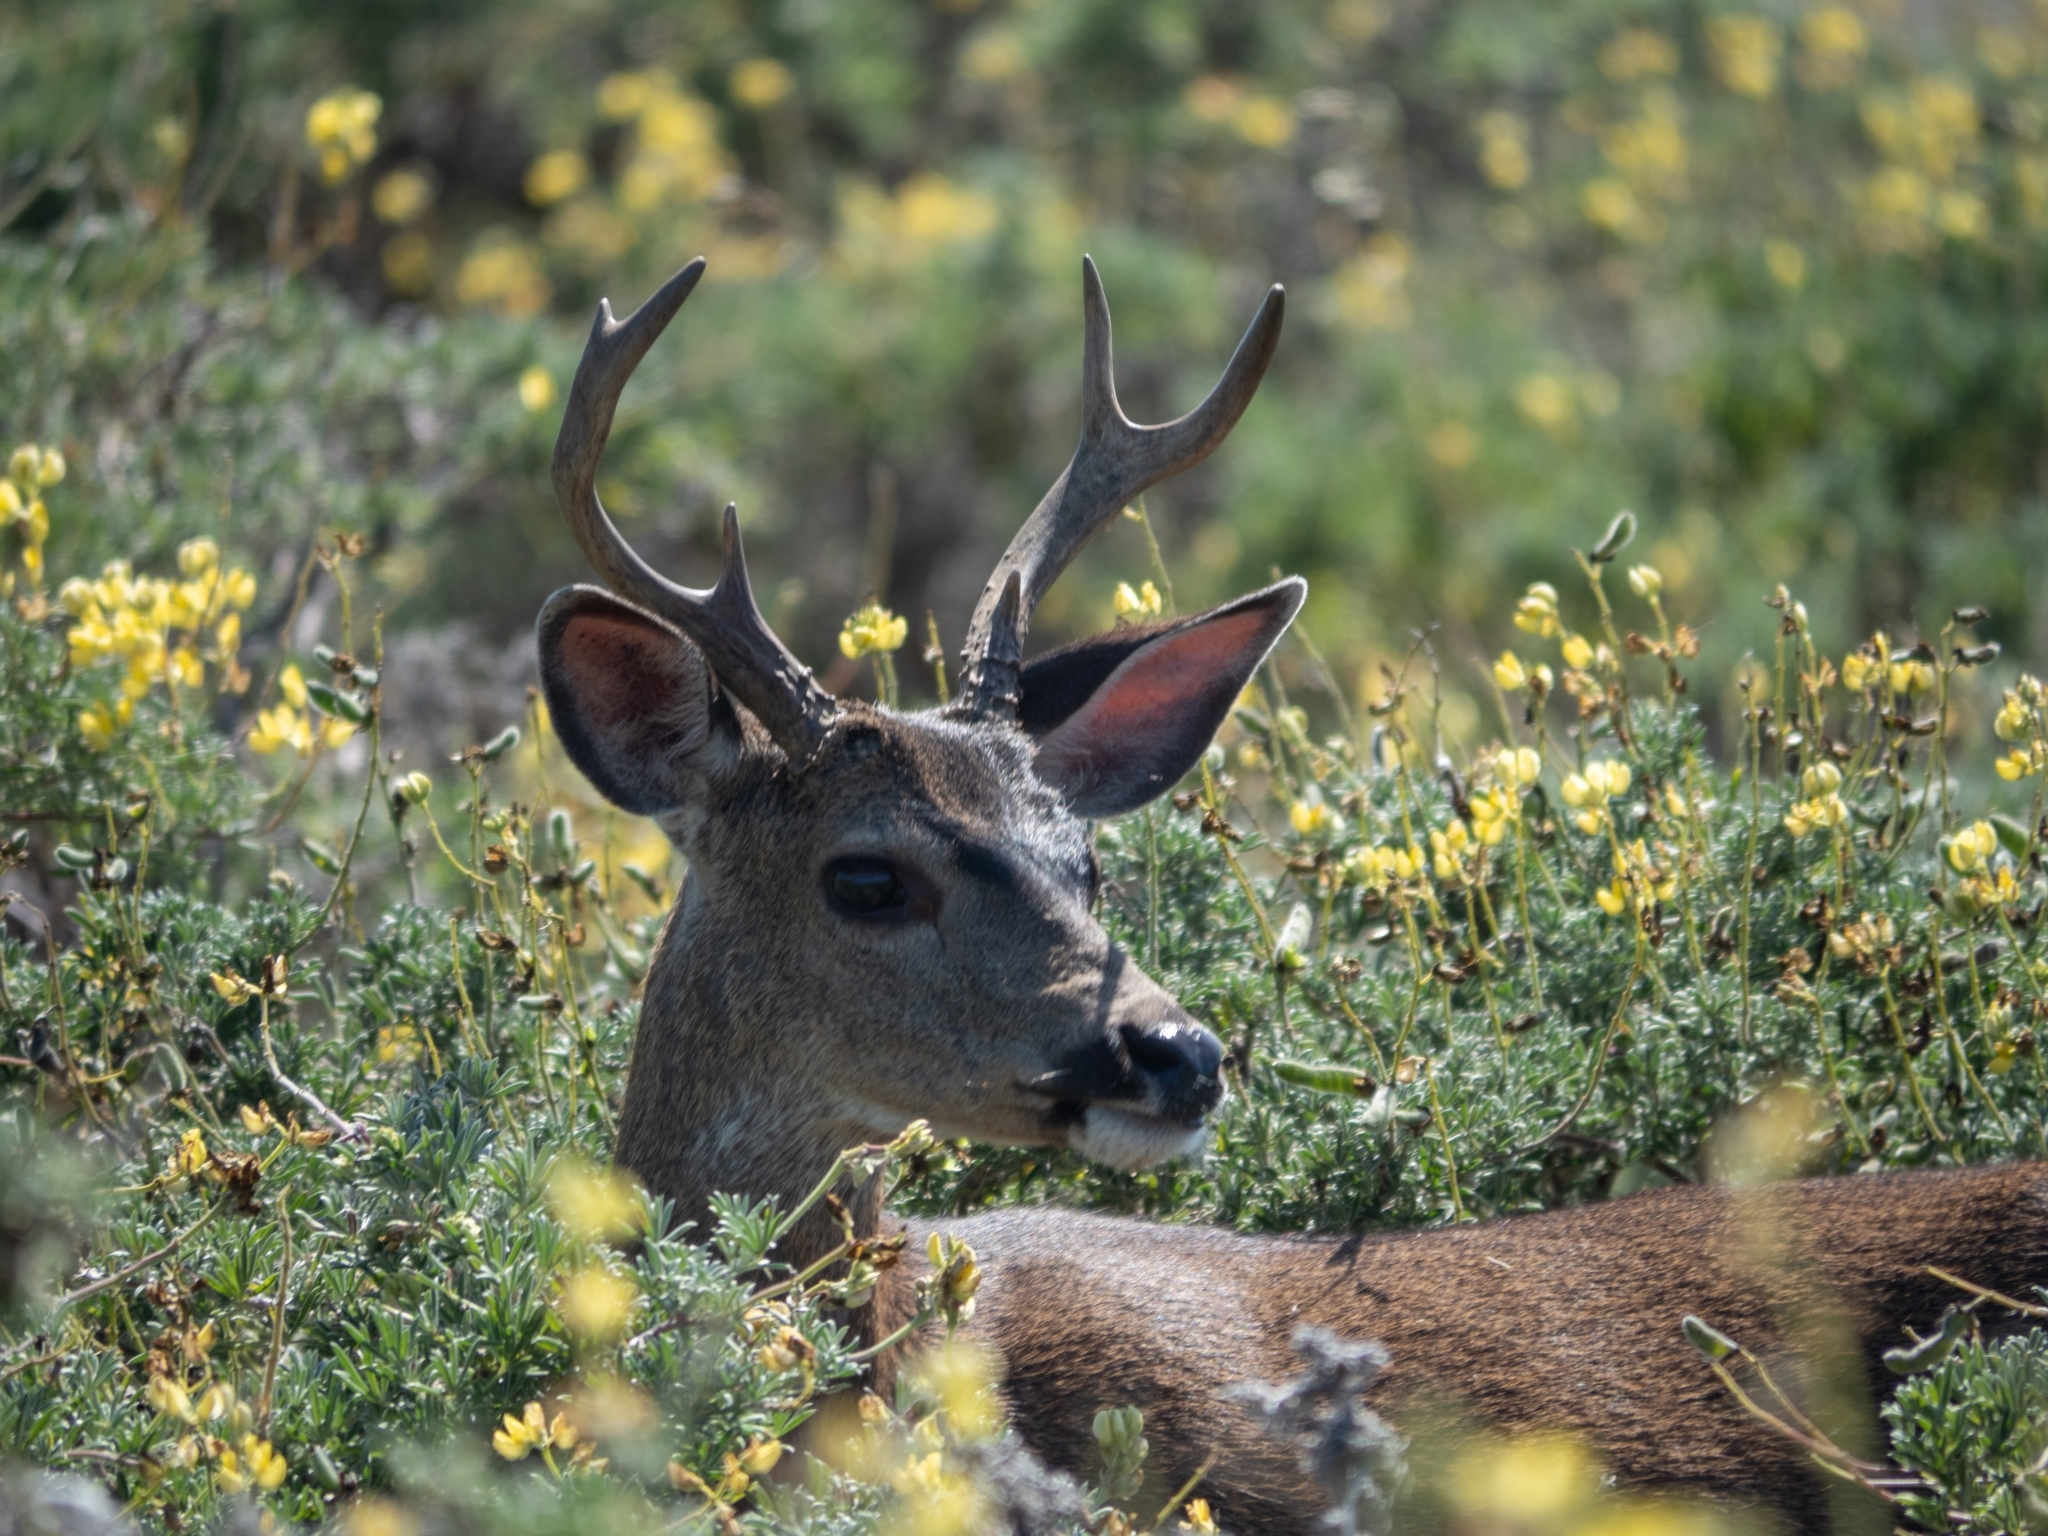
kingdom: Animalia
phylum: Chordata
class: Mammalia
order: Artiodactyla
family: Cervidae
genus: Odocoileus
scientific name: Odocoileus hemionus
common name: Mule deer
